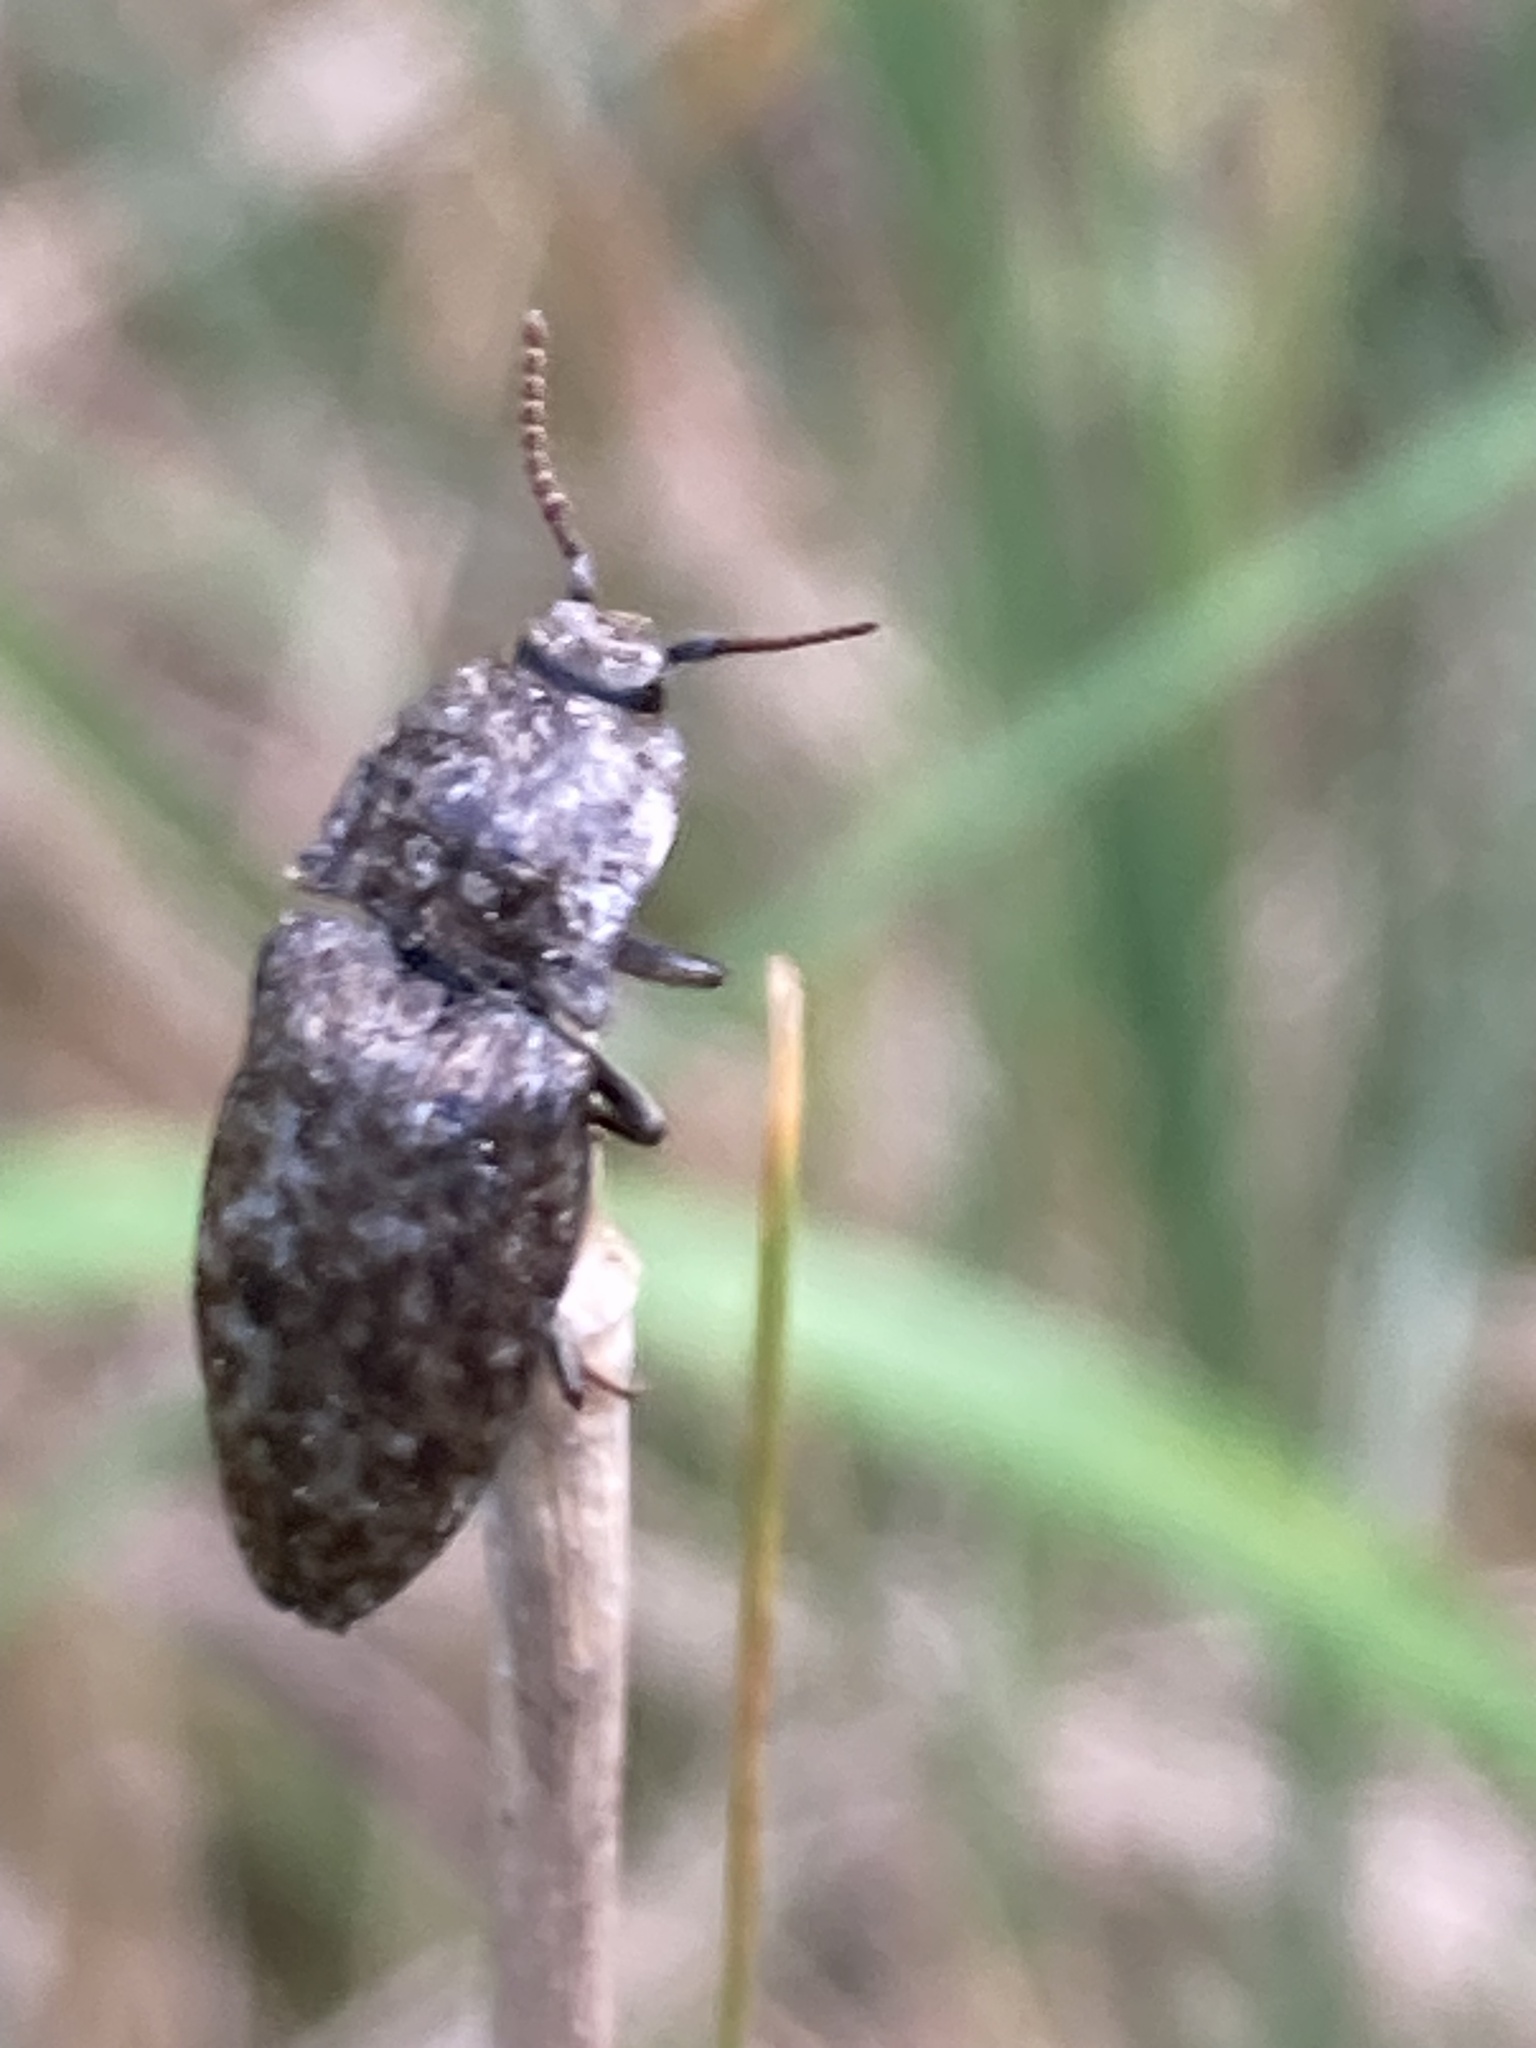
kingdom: Animalia
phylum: Arthropoda
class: Insecta
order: Coleoptera
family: Elateridae
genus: Agrypnus
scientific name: Agrypnus murinus
